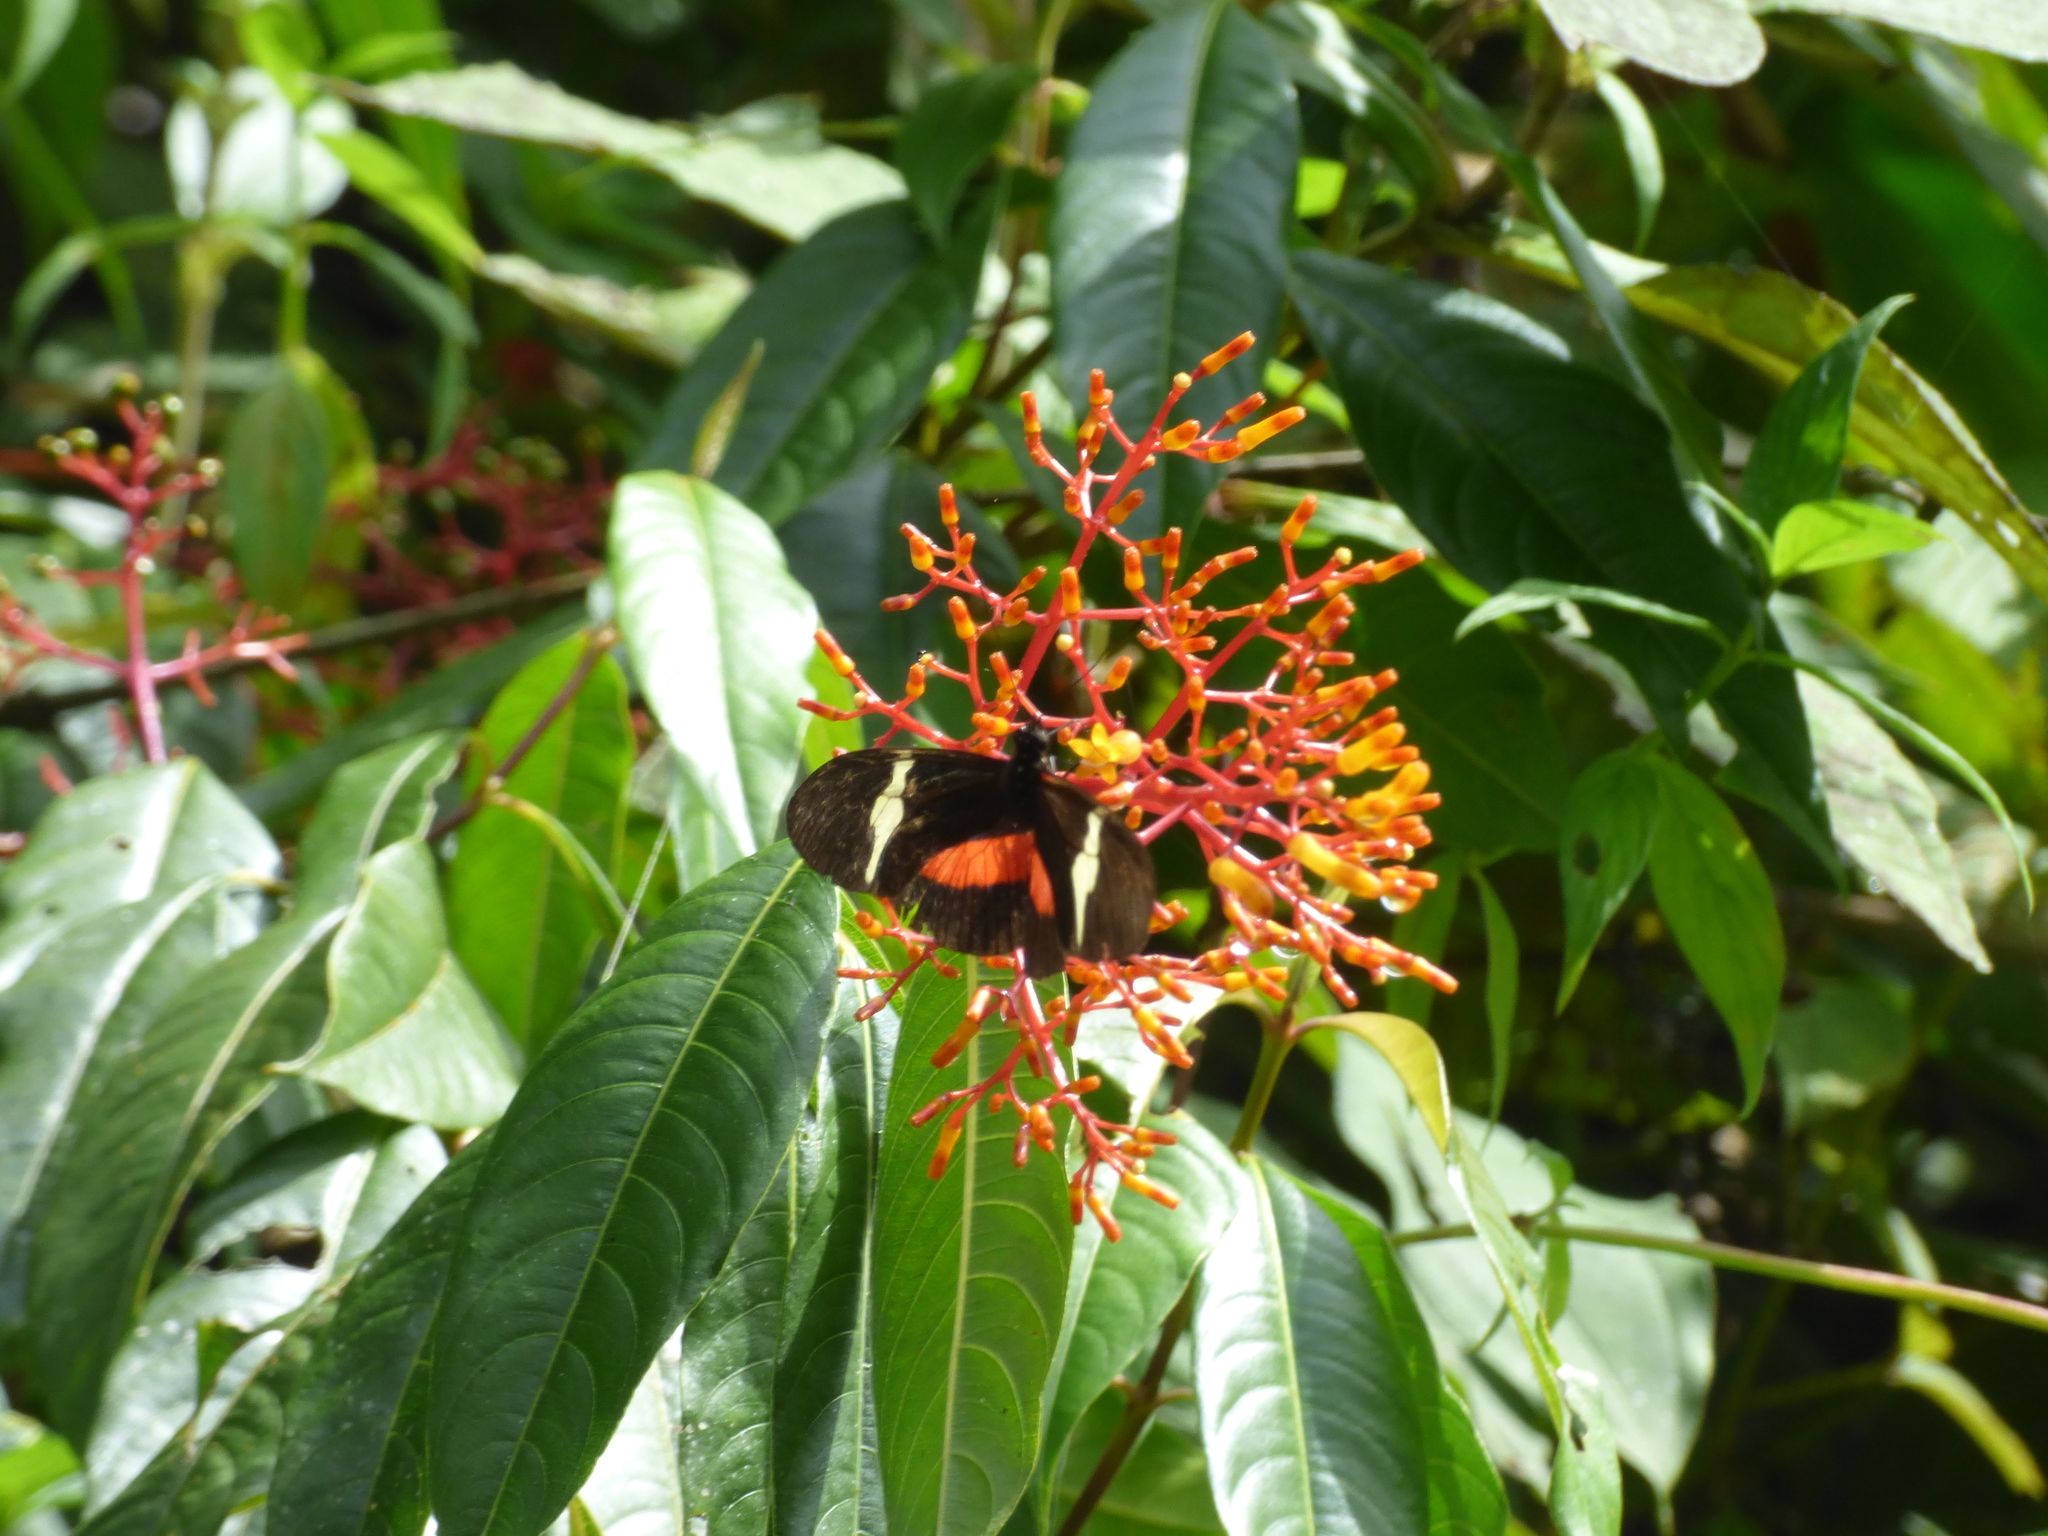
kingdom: Animalia
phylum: Arthropoda
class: Insecta
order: Lepidoptera
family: Nymphalidae
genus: Heliconius
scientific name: Heliconius clysonymus
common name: Clysonymus longwing
